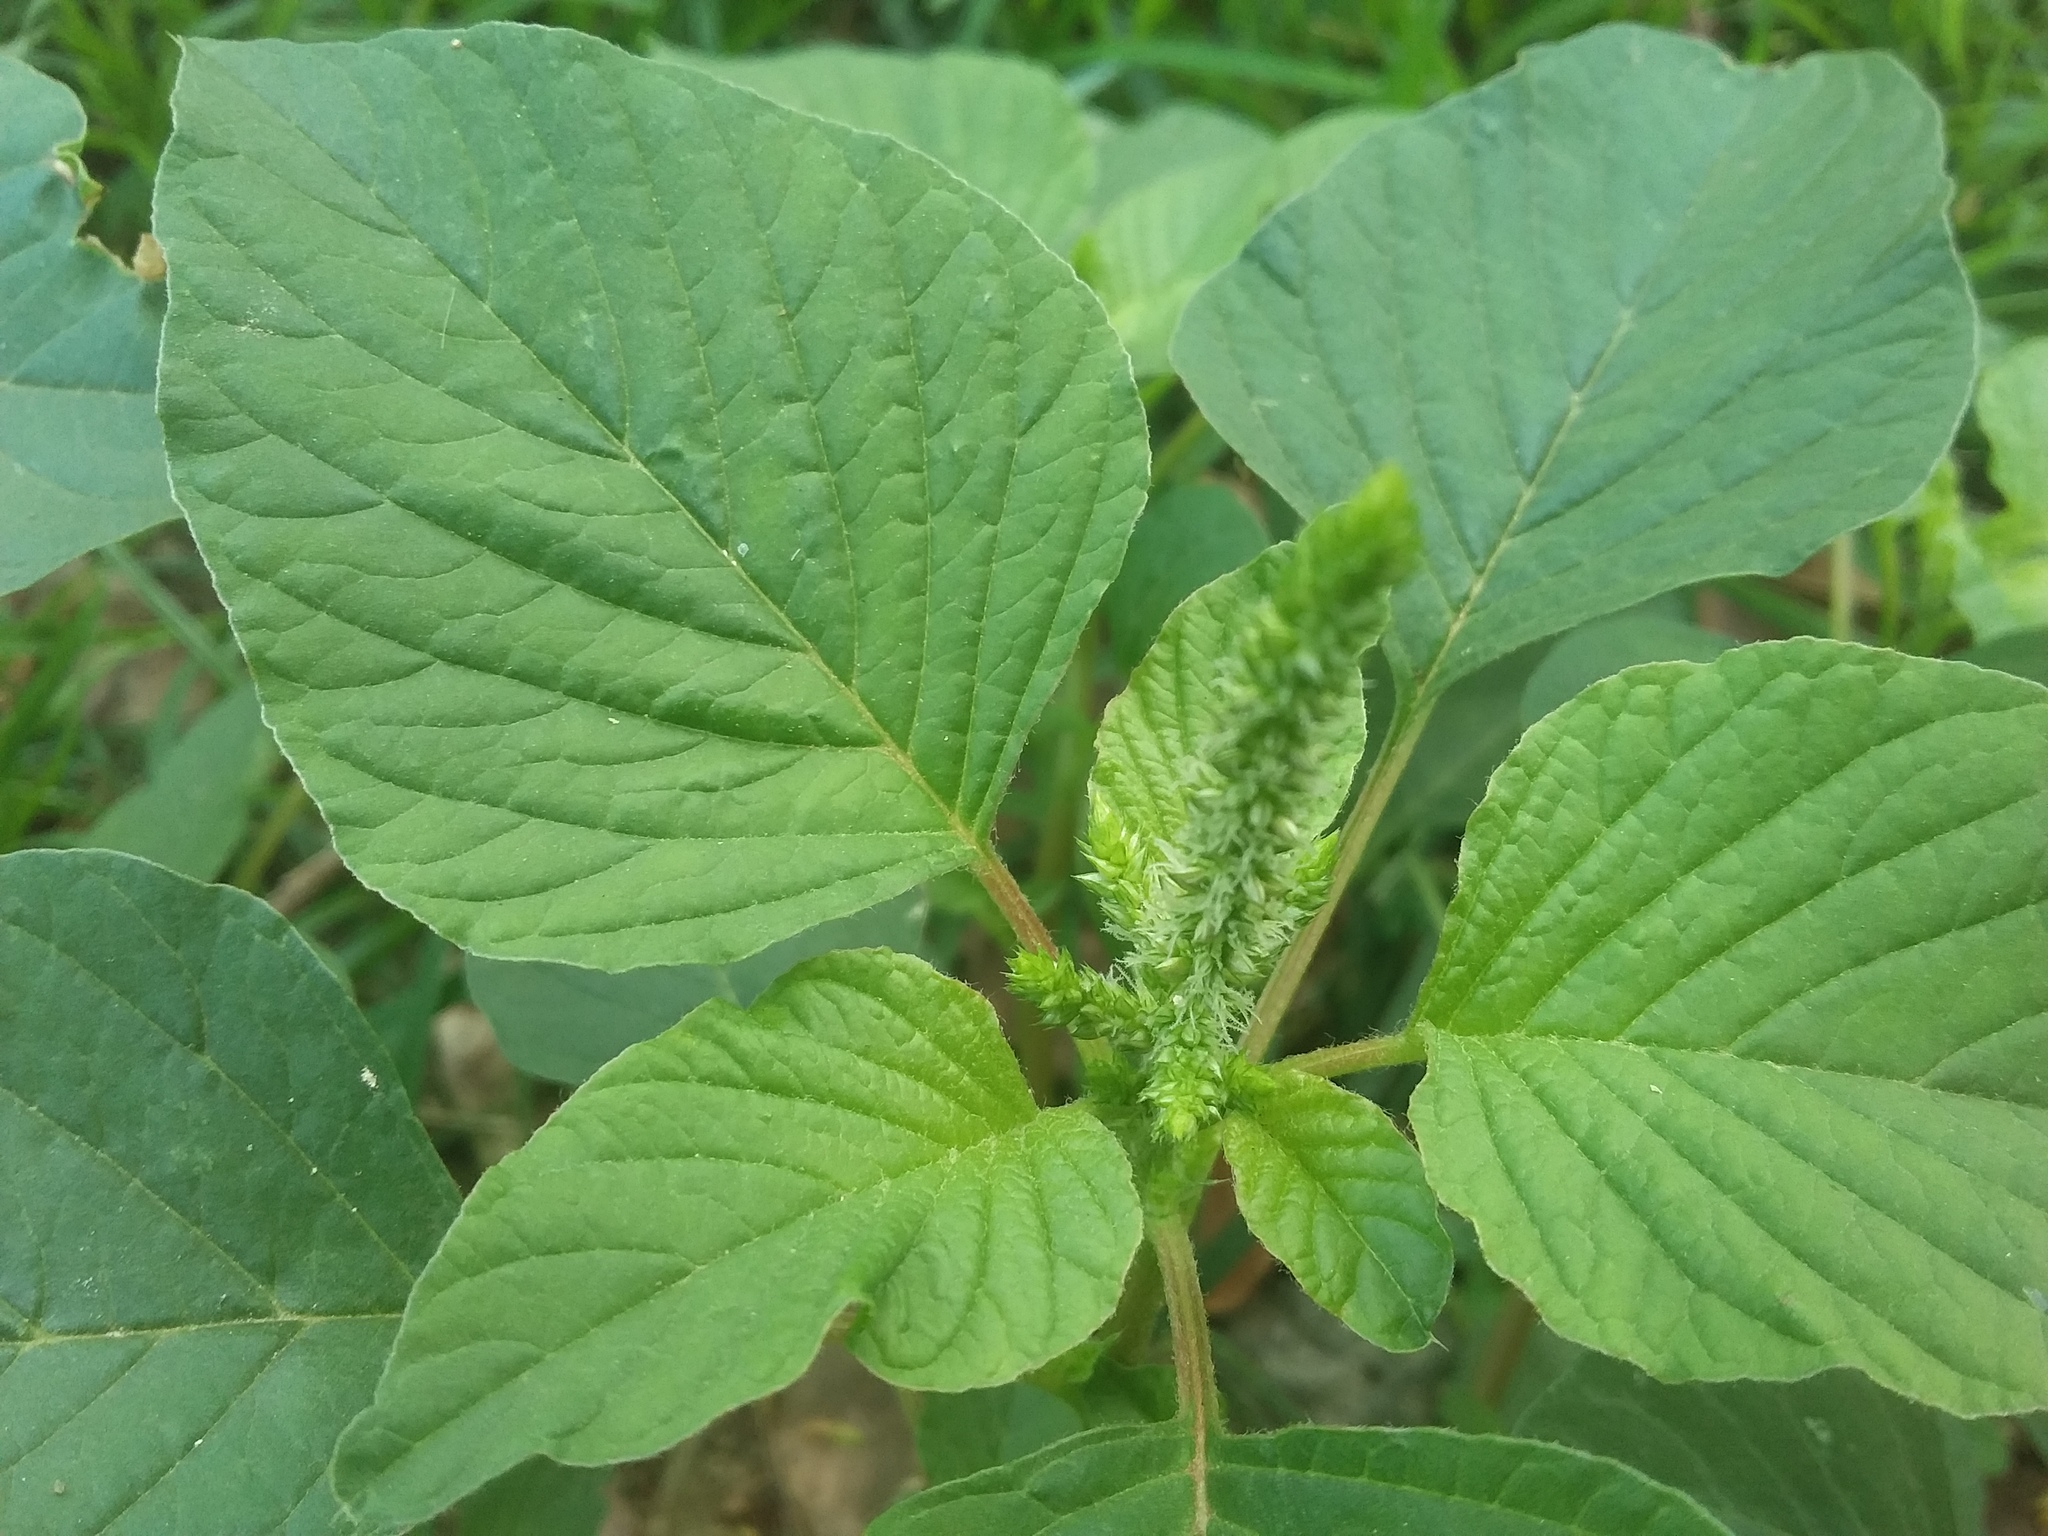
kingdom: Plantae
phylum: Tracheophyta
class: Magnoliopsida
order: Caryophyllales
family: Amaranthaceae
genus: Amaranthus
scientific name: Amaranthus viridis
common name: Slender amaranth
